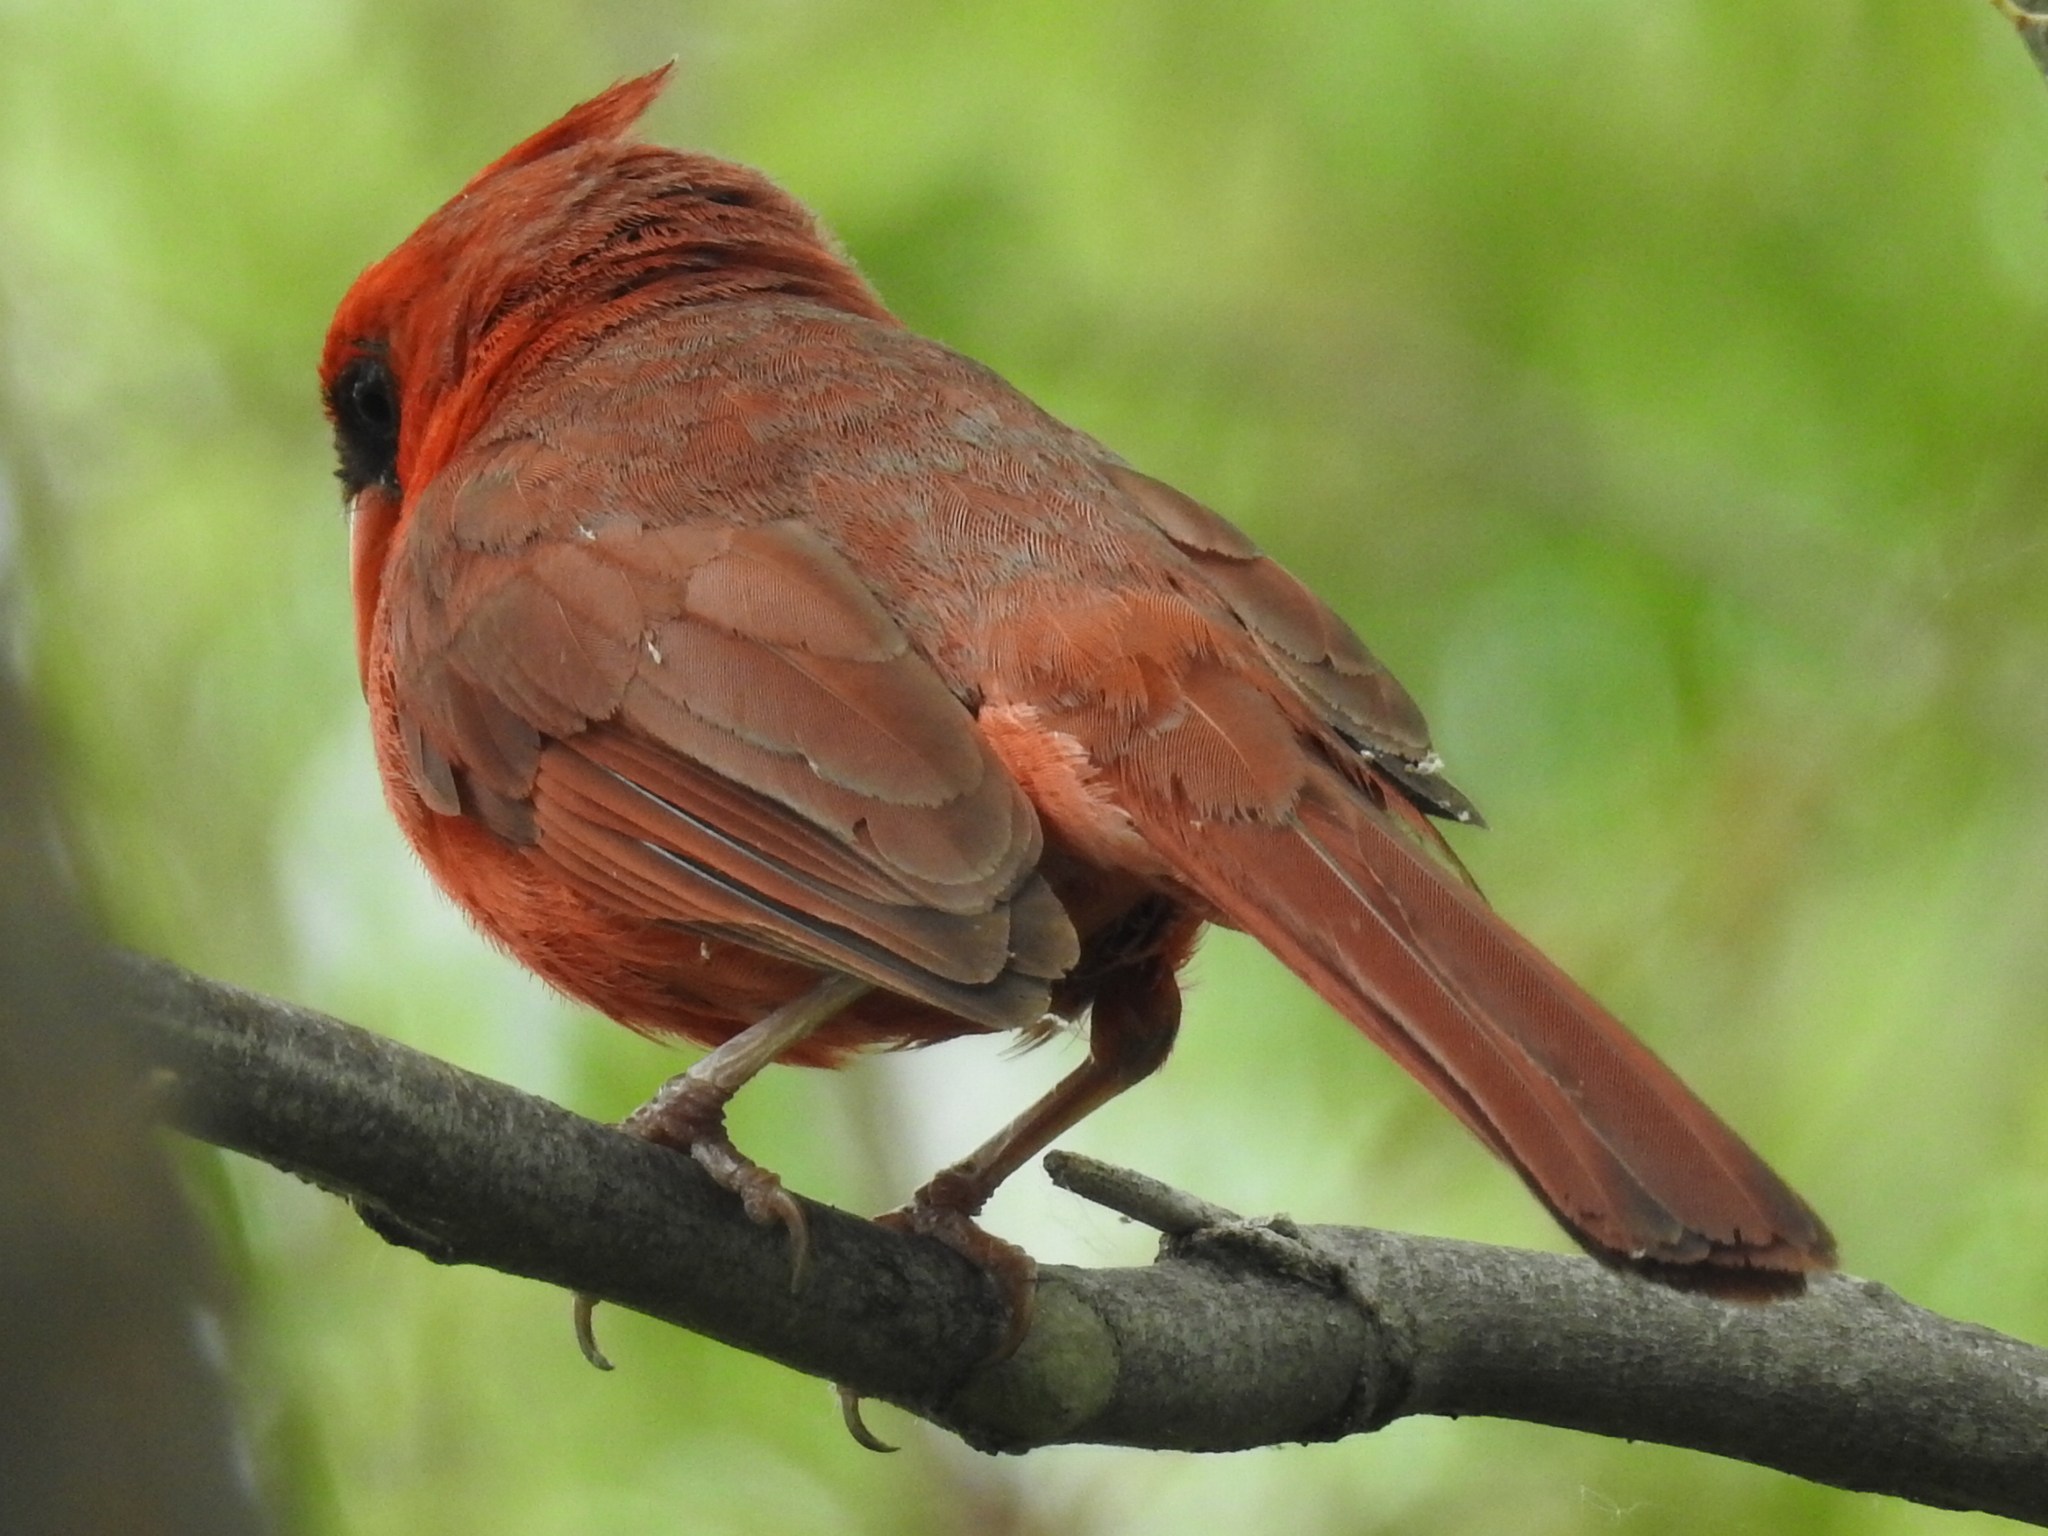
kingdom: Animalia
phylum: Chordata
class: Aves
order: Passeriformes
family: Cardinalidae
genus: Cardinalis
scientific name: Cardinalis cardinalis
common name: Northern cardinal
